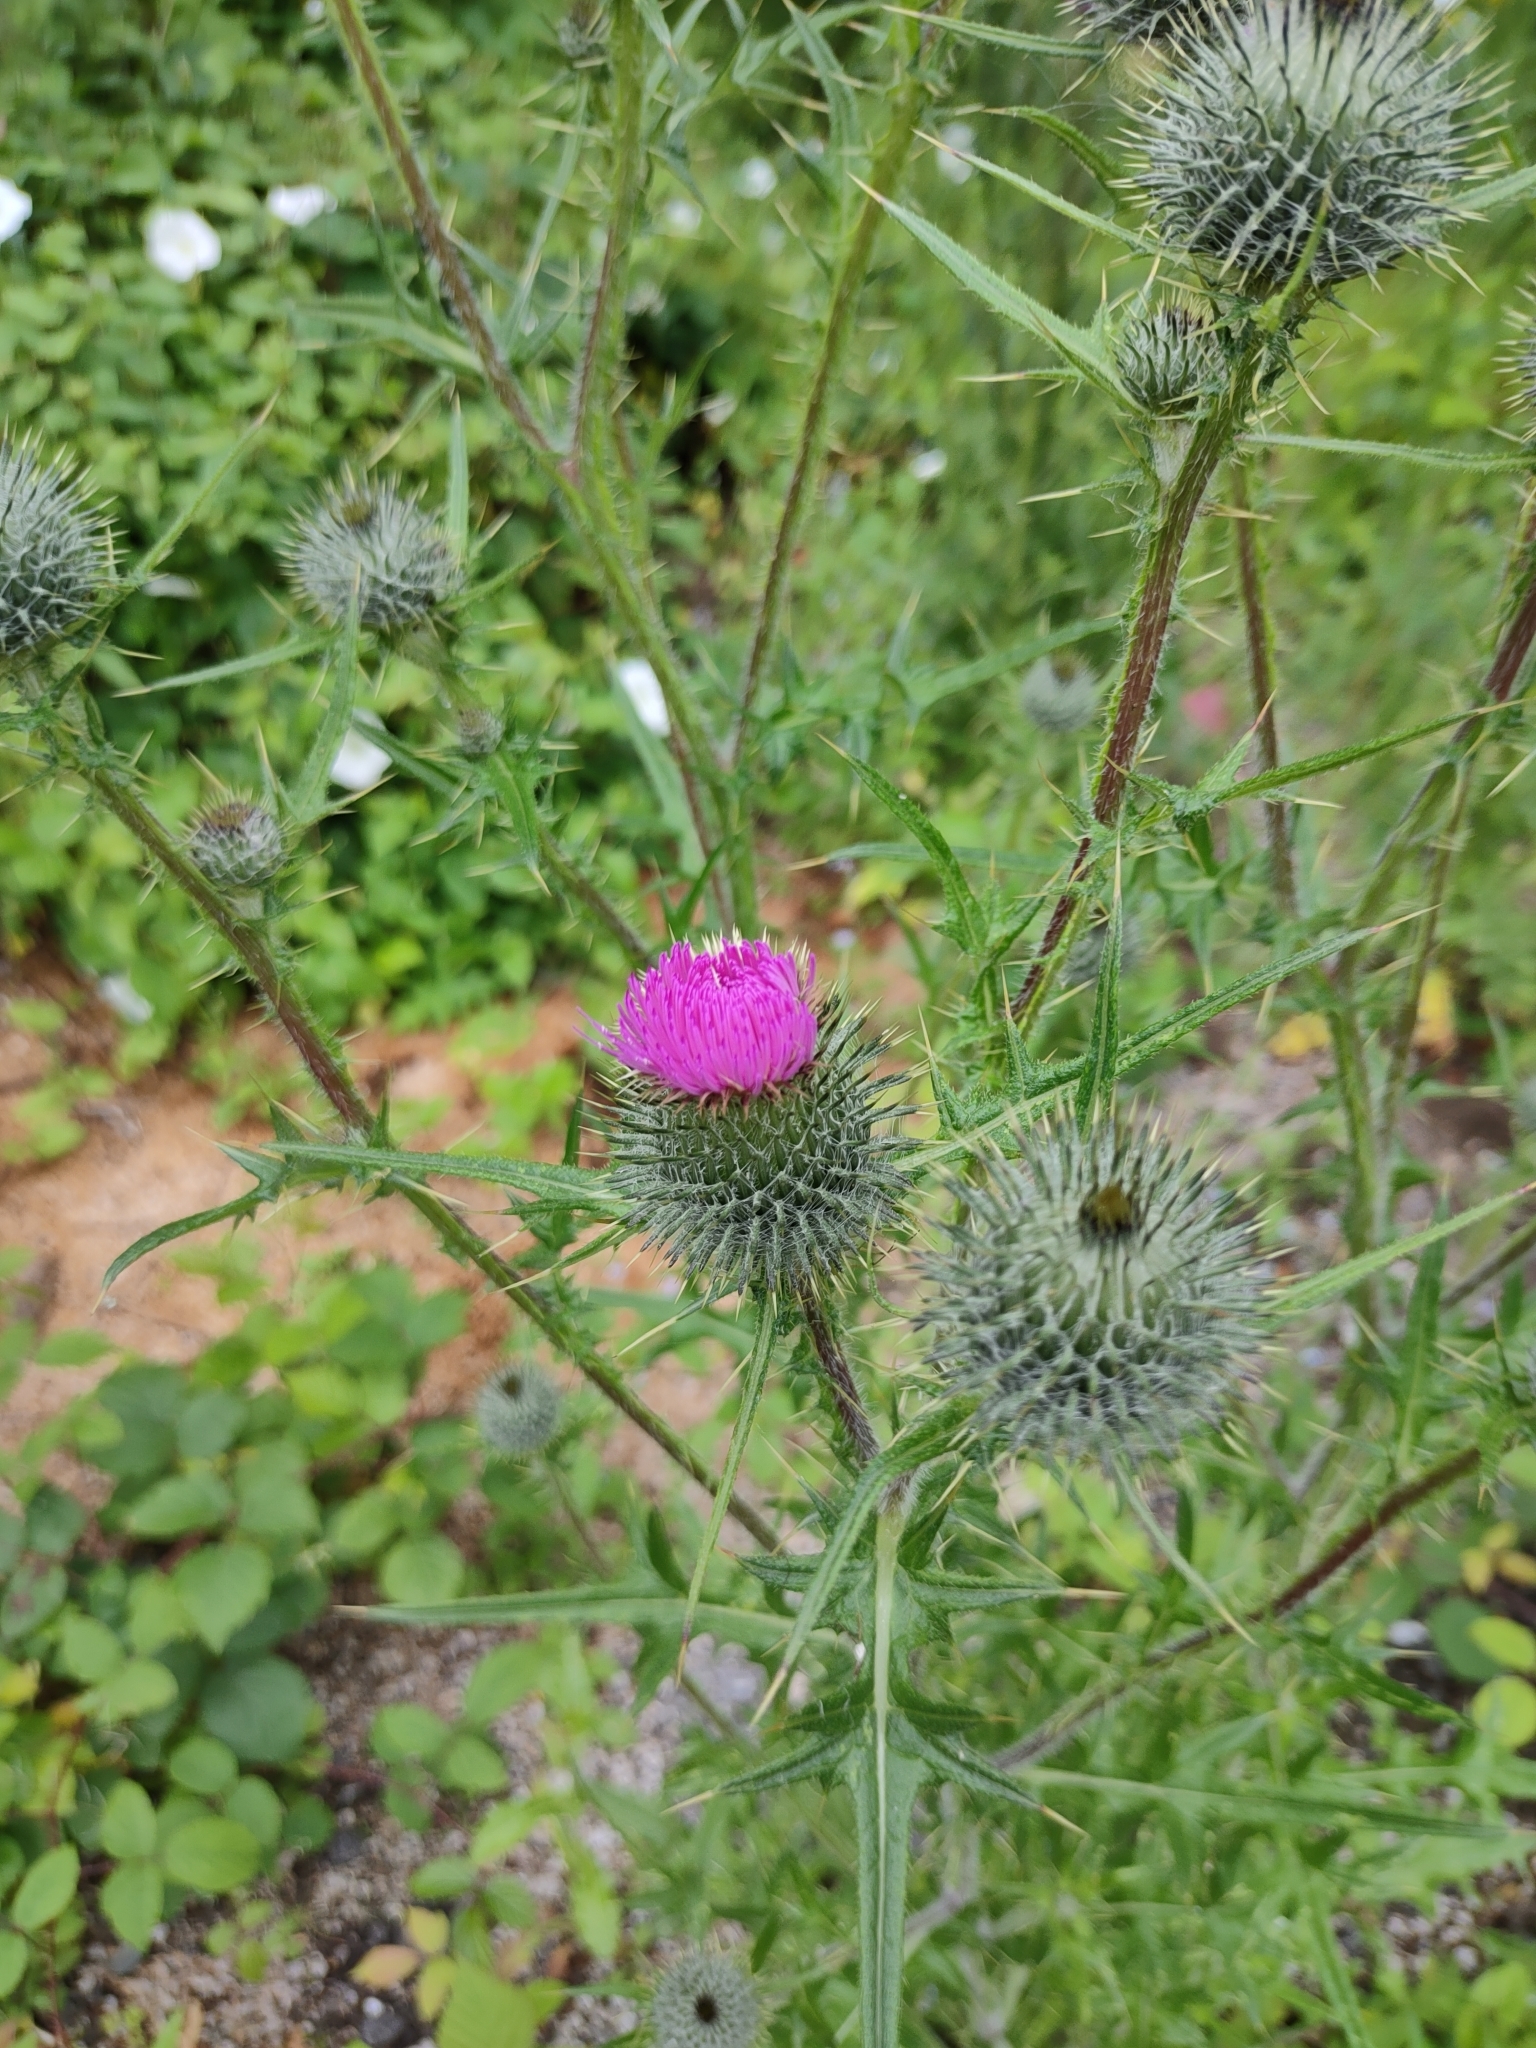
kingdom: Plantae
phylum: Tracheophyta
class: Magnoliopsida
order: Asterales
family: Asteraceae
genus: Cirsium
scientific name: Cirsium vulgare
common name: Bull thistle
